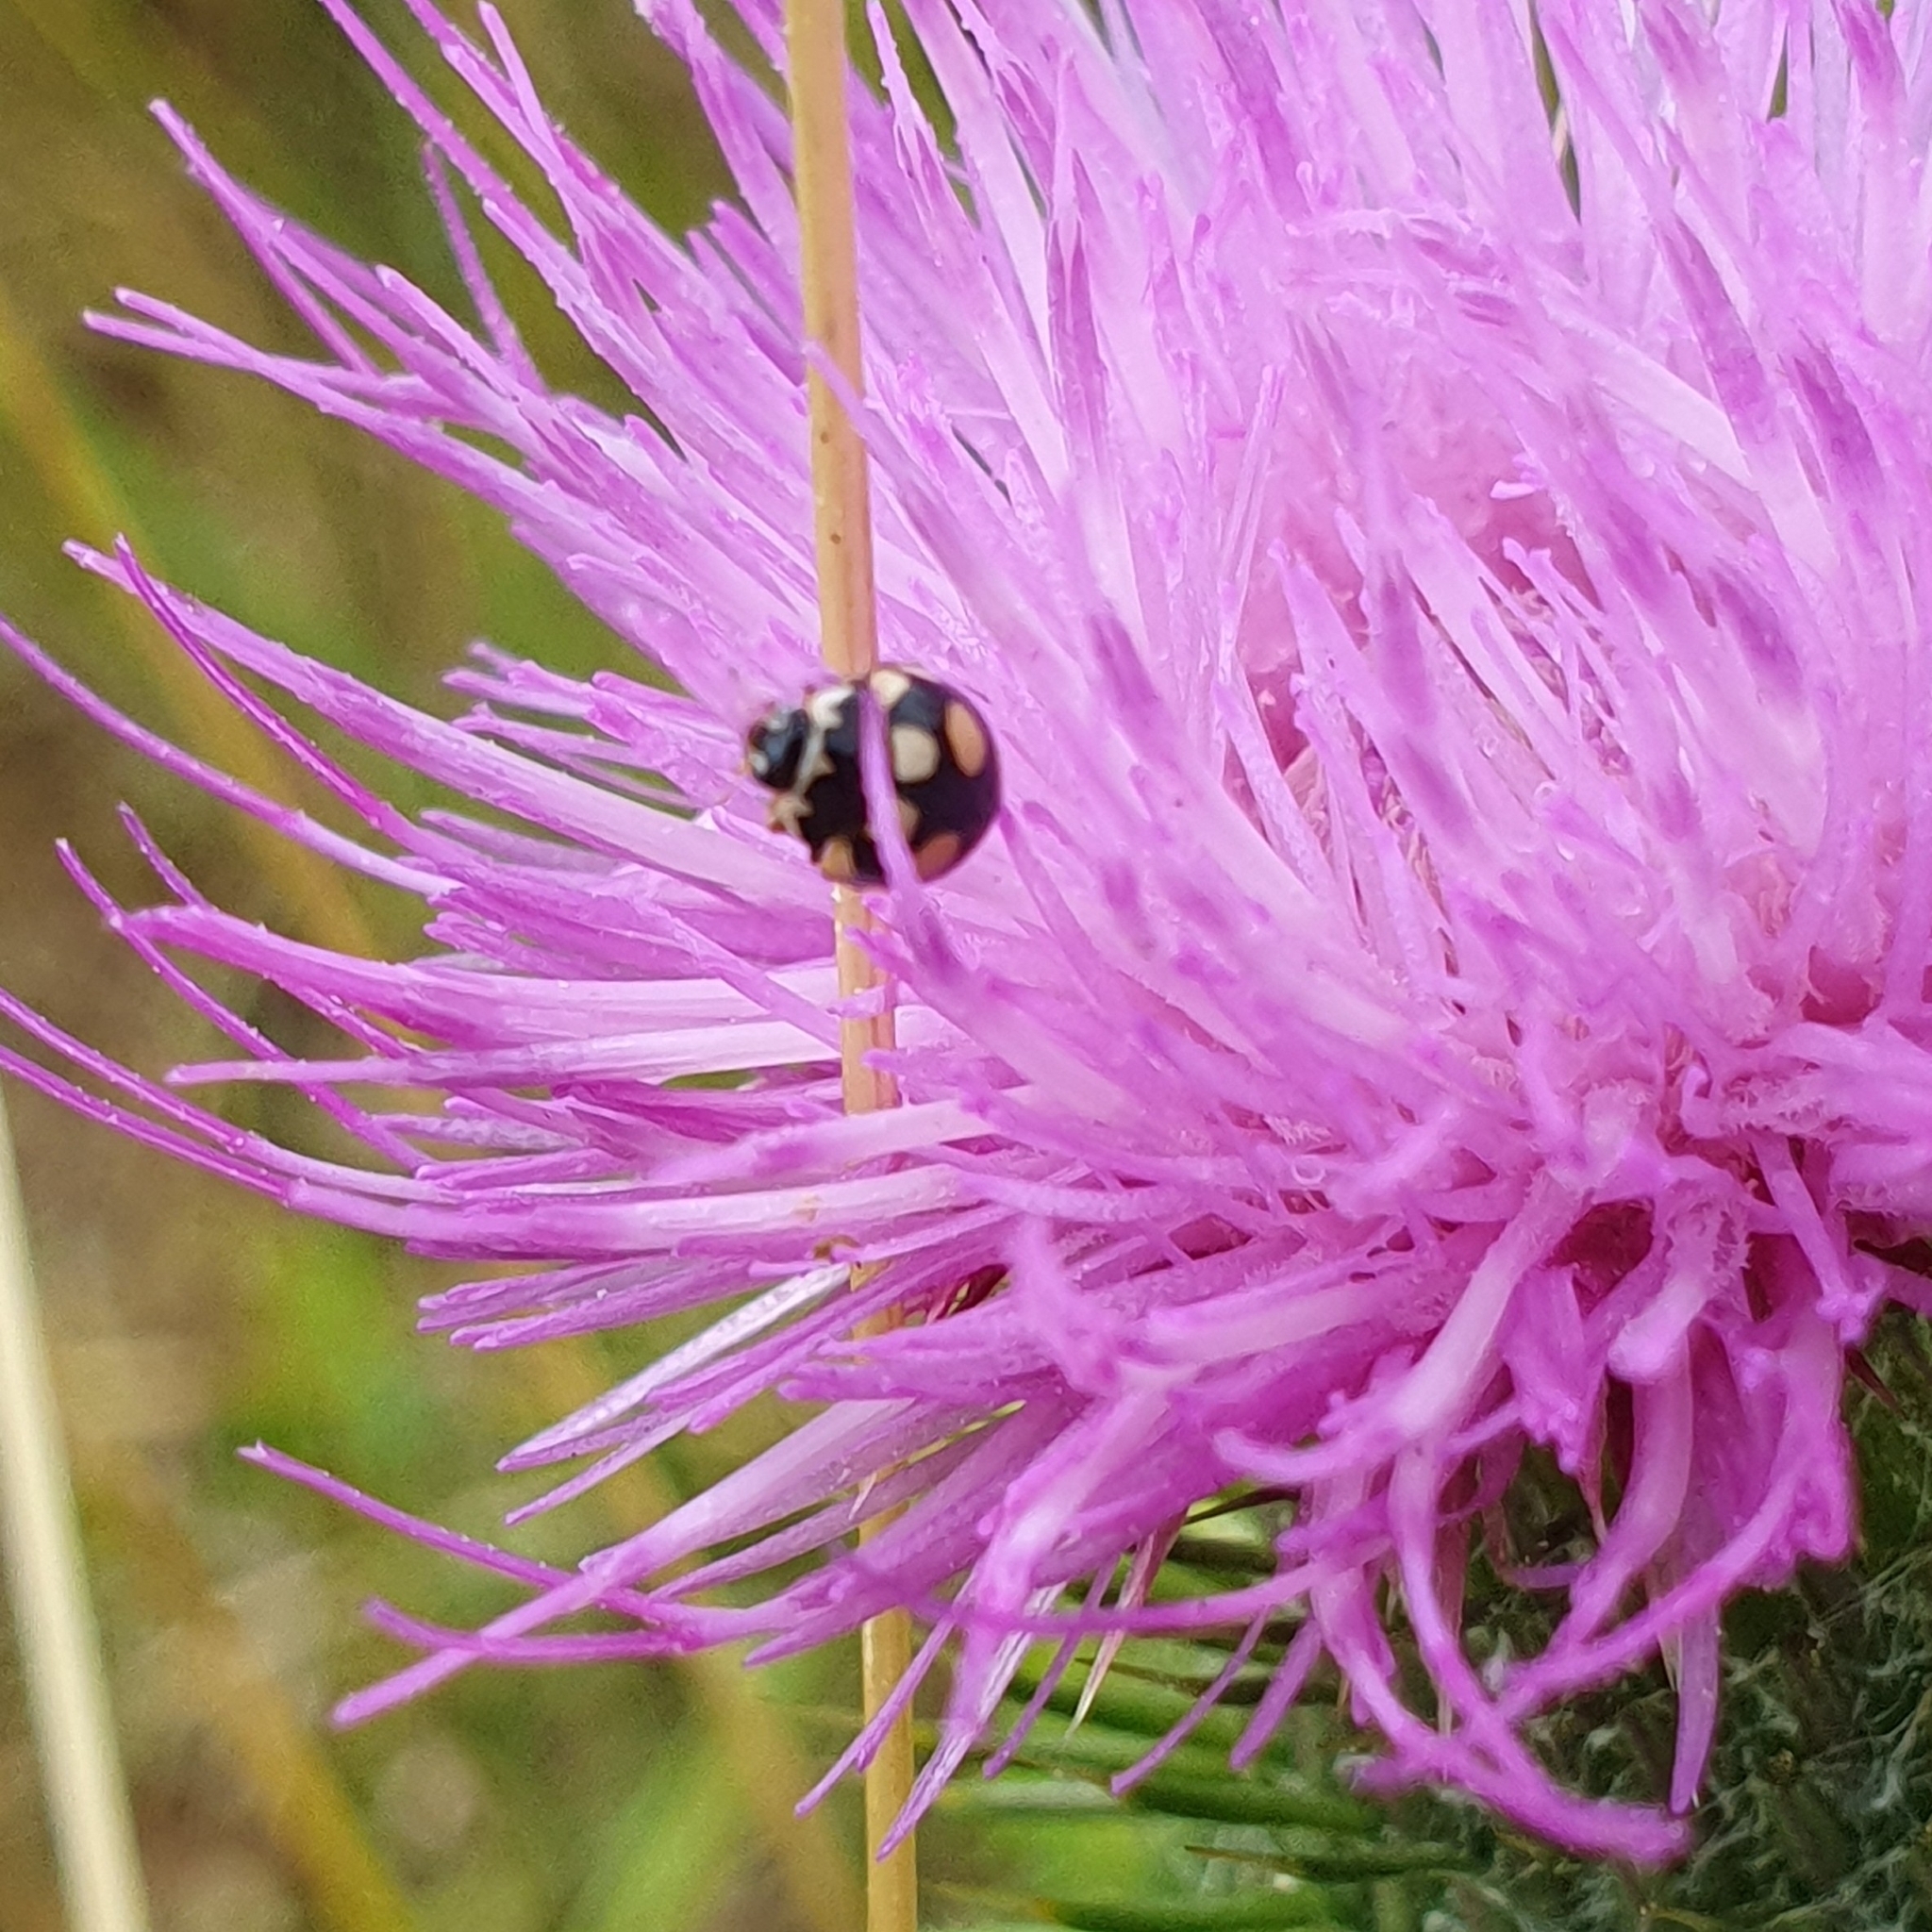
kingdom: Animalia
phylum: Arthropoda
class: Insecta
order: Coleoptera
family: Coccinellidae
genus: Coccinula
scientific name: Coccinula quatuordecimpustulata
